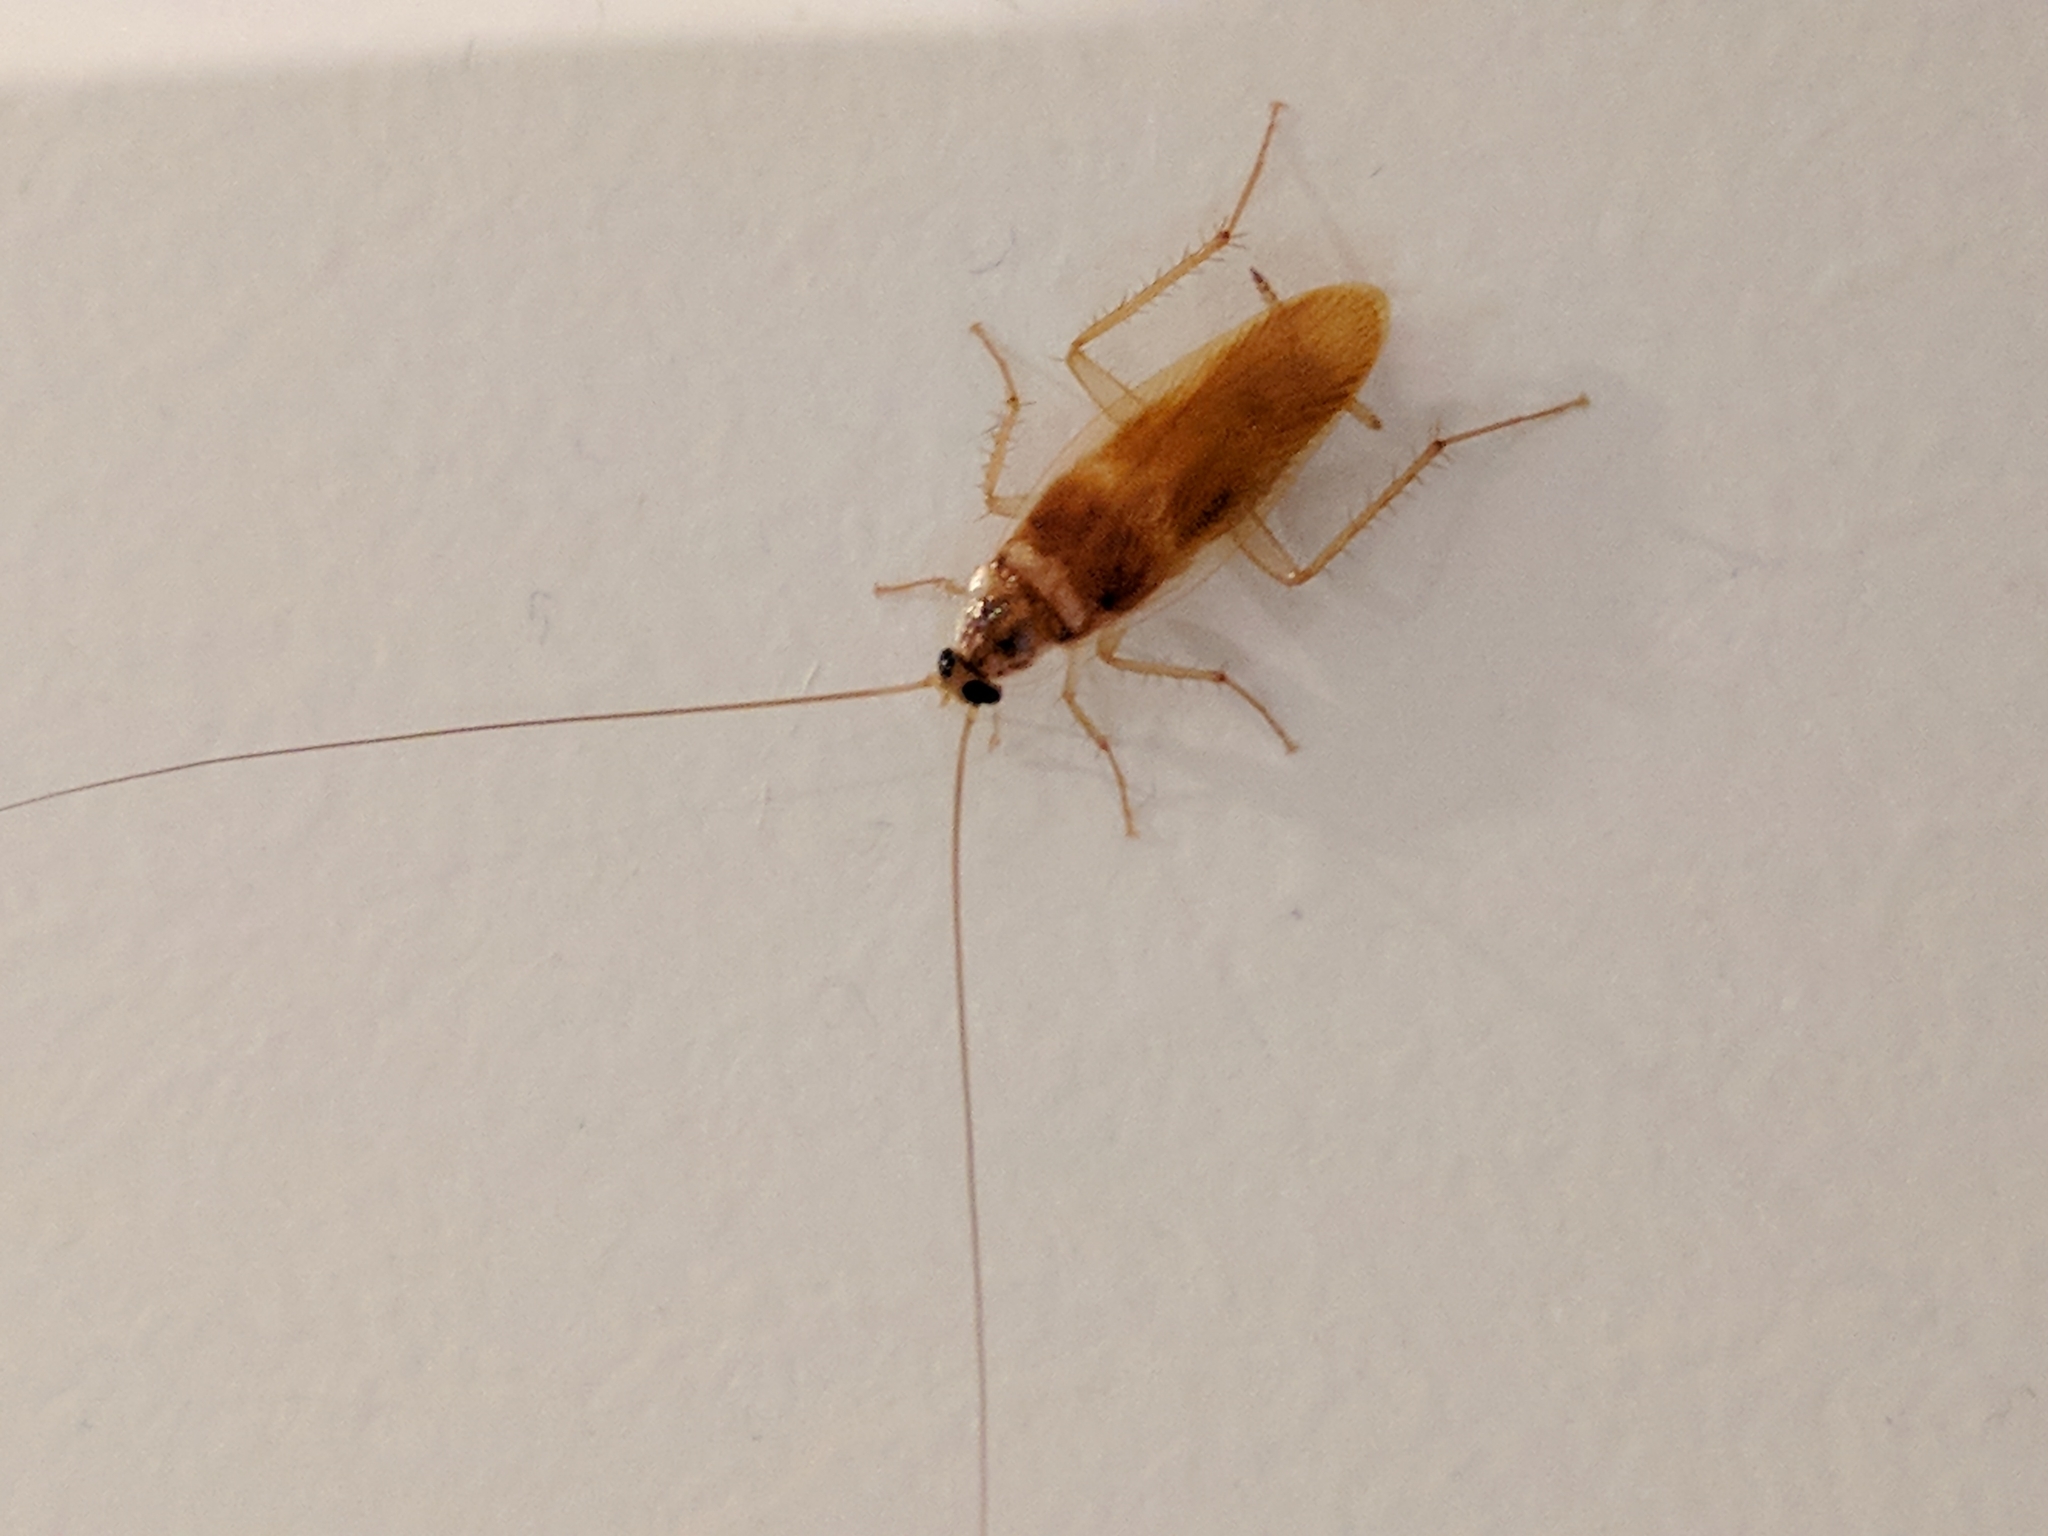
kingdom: Animalia
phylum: Arthropoda
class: Insecta
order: Blattodea
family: Ectobiidae
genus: Supella
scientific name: Supella longipalpa
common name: Brown-banded cockroach
